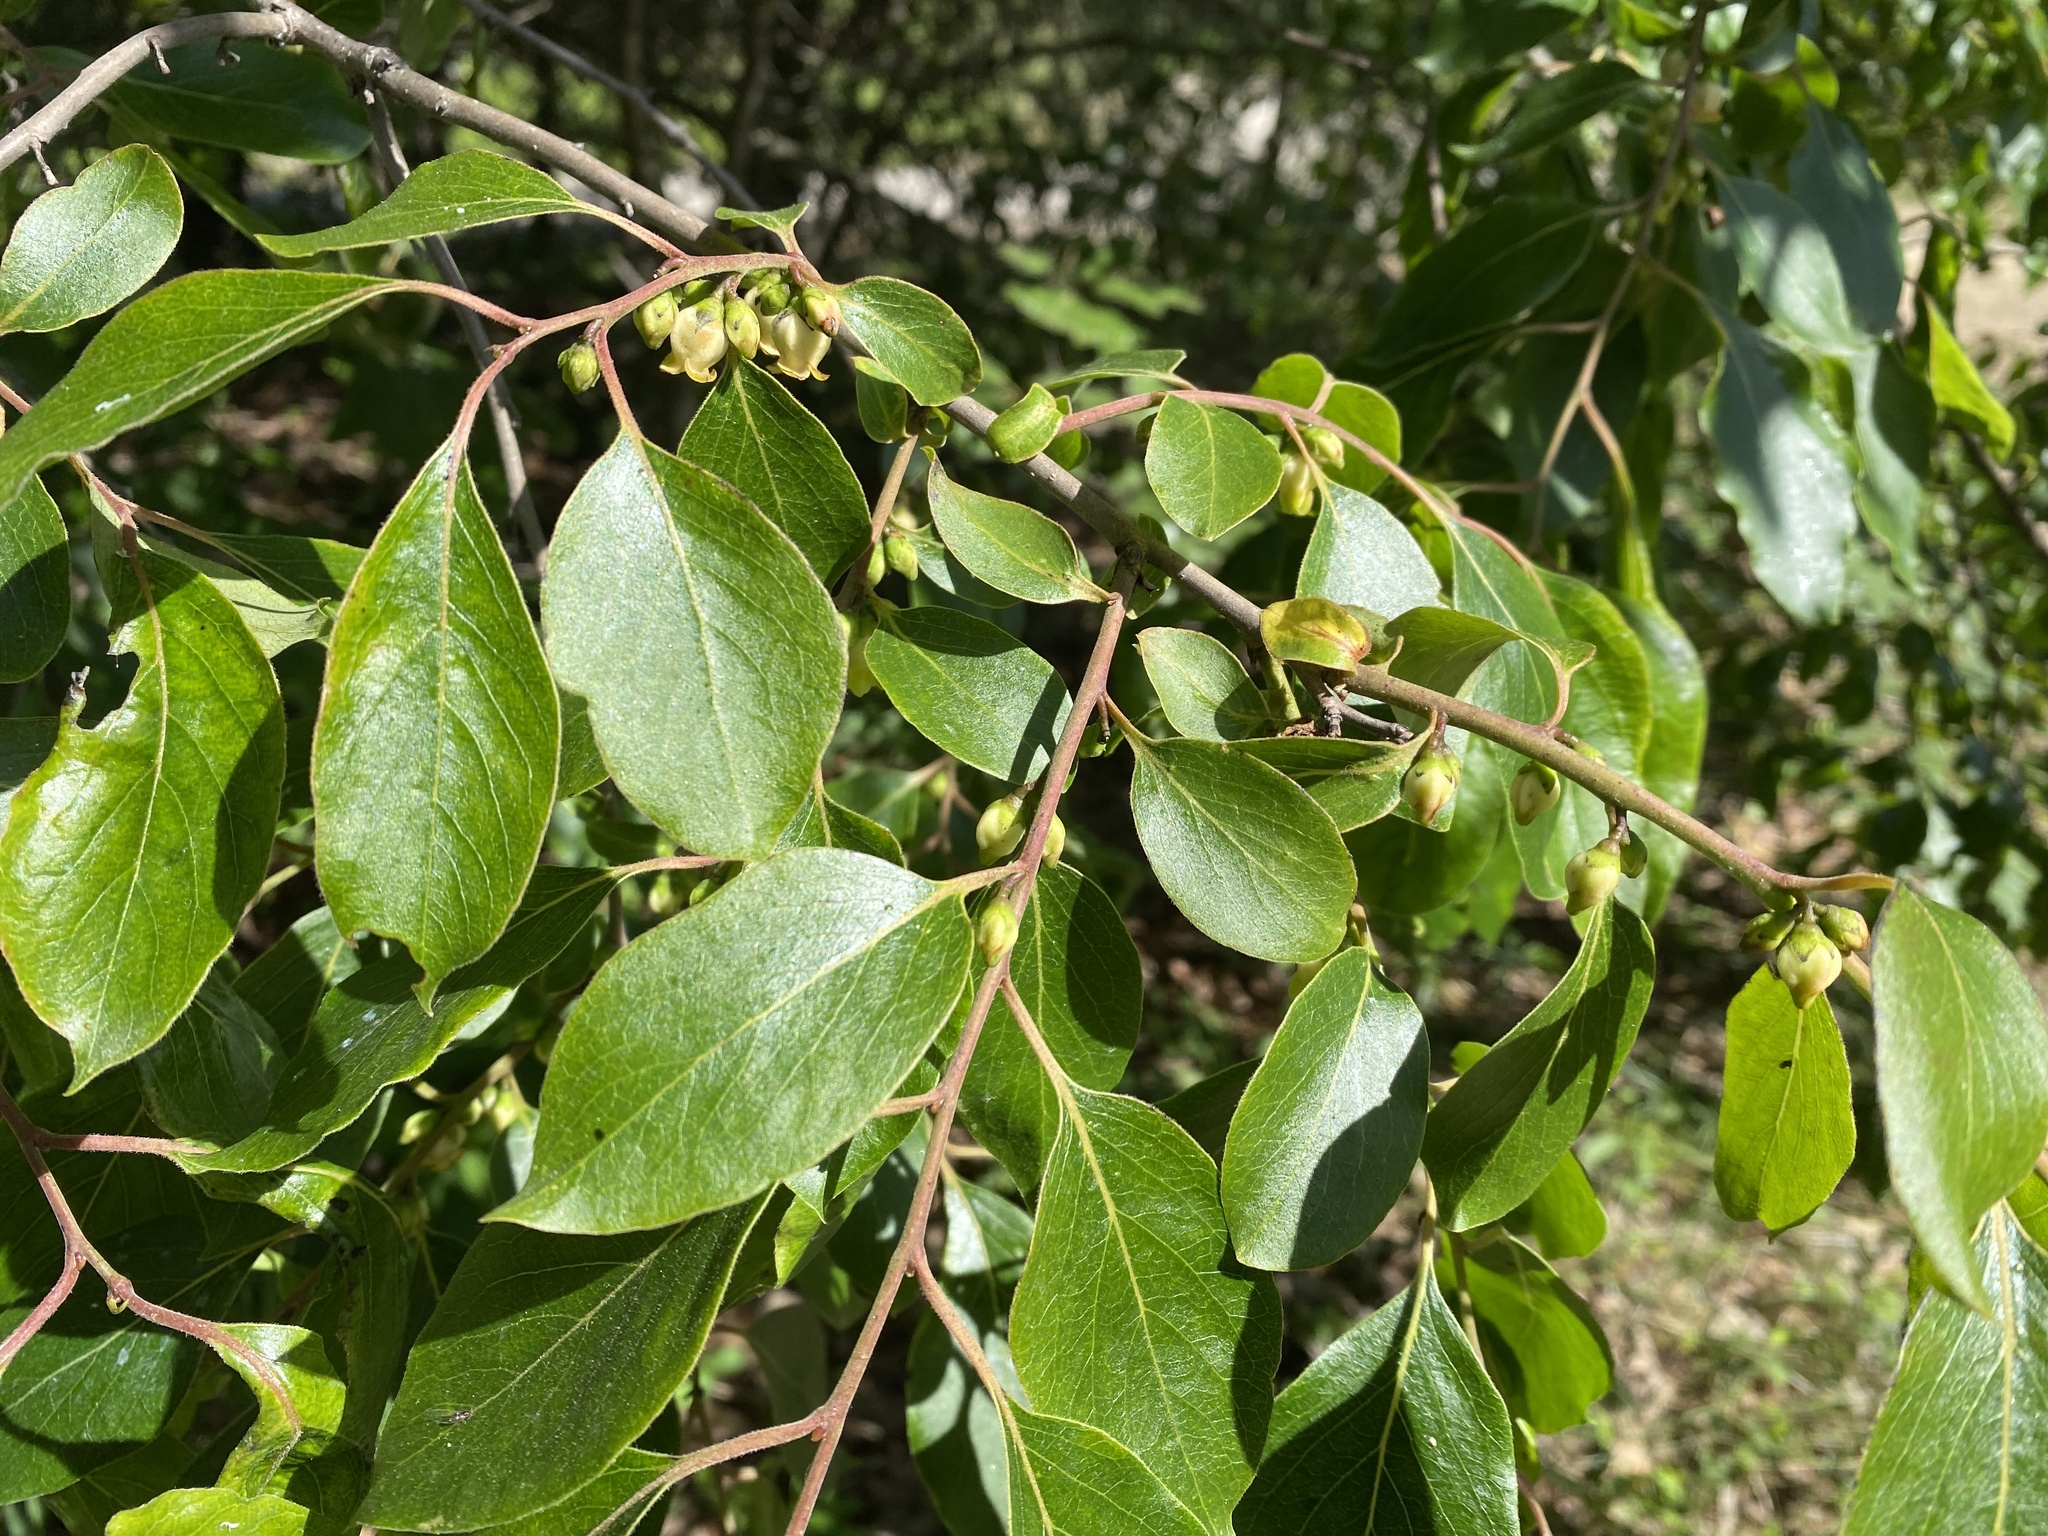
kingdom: Plantae
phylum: Tracheophyta
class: Magnoliopsida
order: Ericales
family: Ebenaceae
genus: Diospyros
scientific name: Diospyros virginiana
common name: Persimmon
